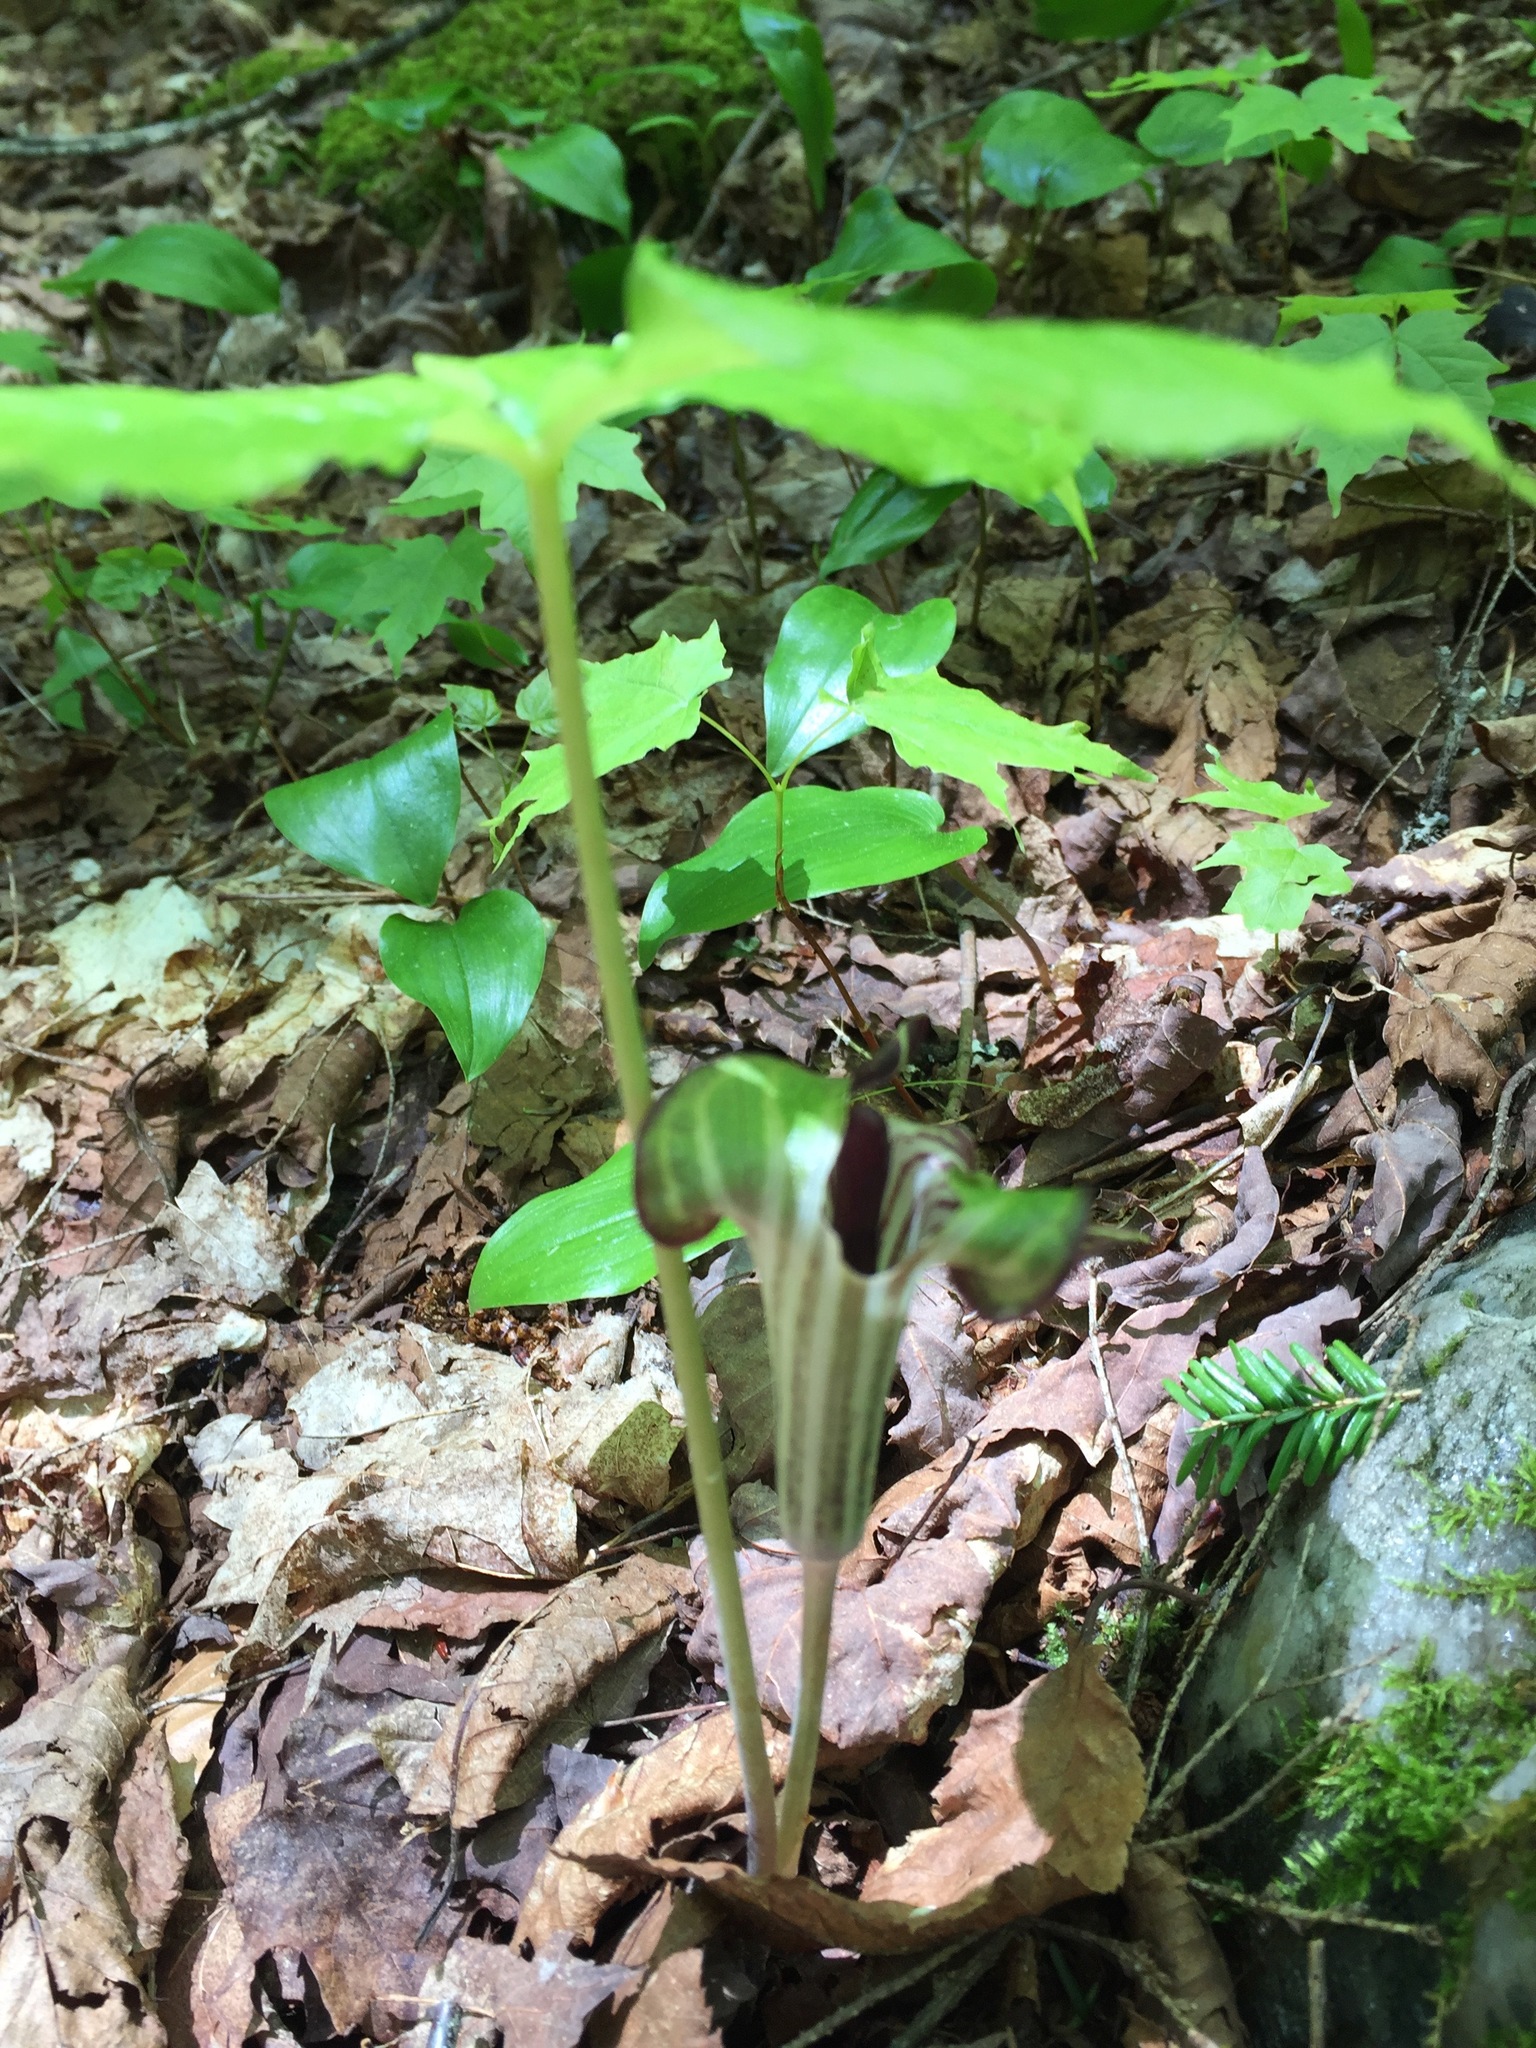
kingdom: Plantae
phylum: Tracheophyta
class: Liliopsida
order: Alismatales
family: Araceae
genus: Arisaema
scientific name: Arisaema triphyllum
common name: Jack-in-the-pulpit
